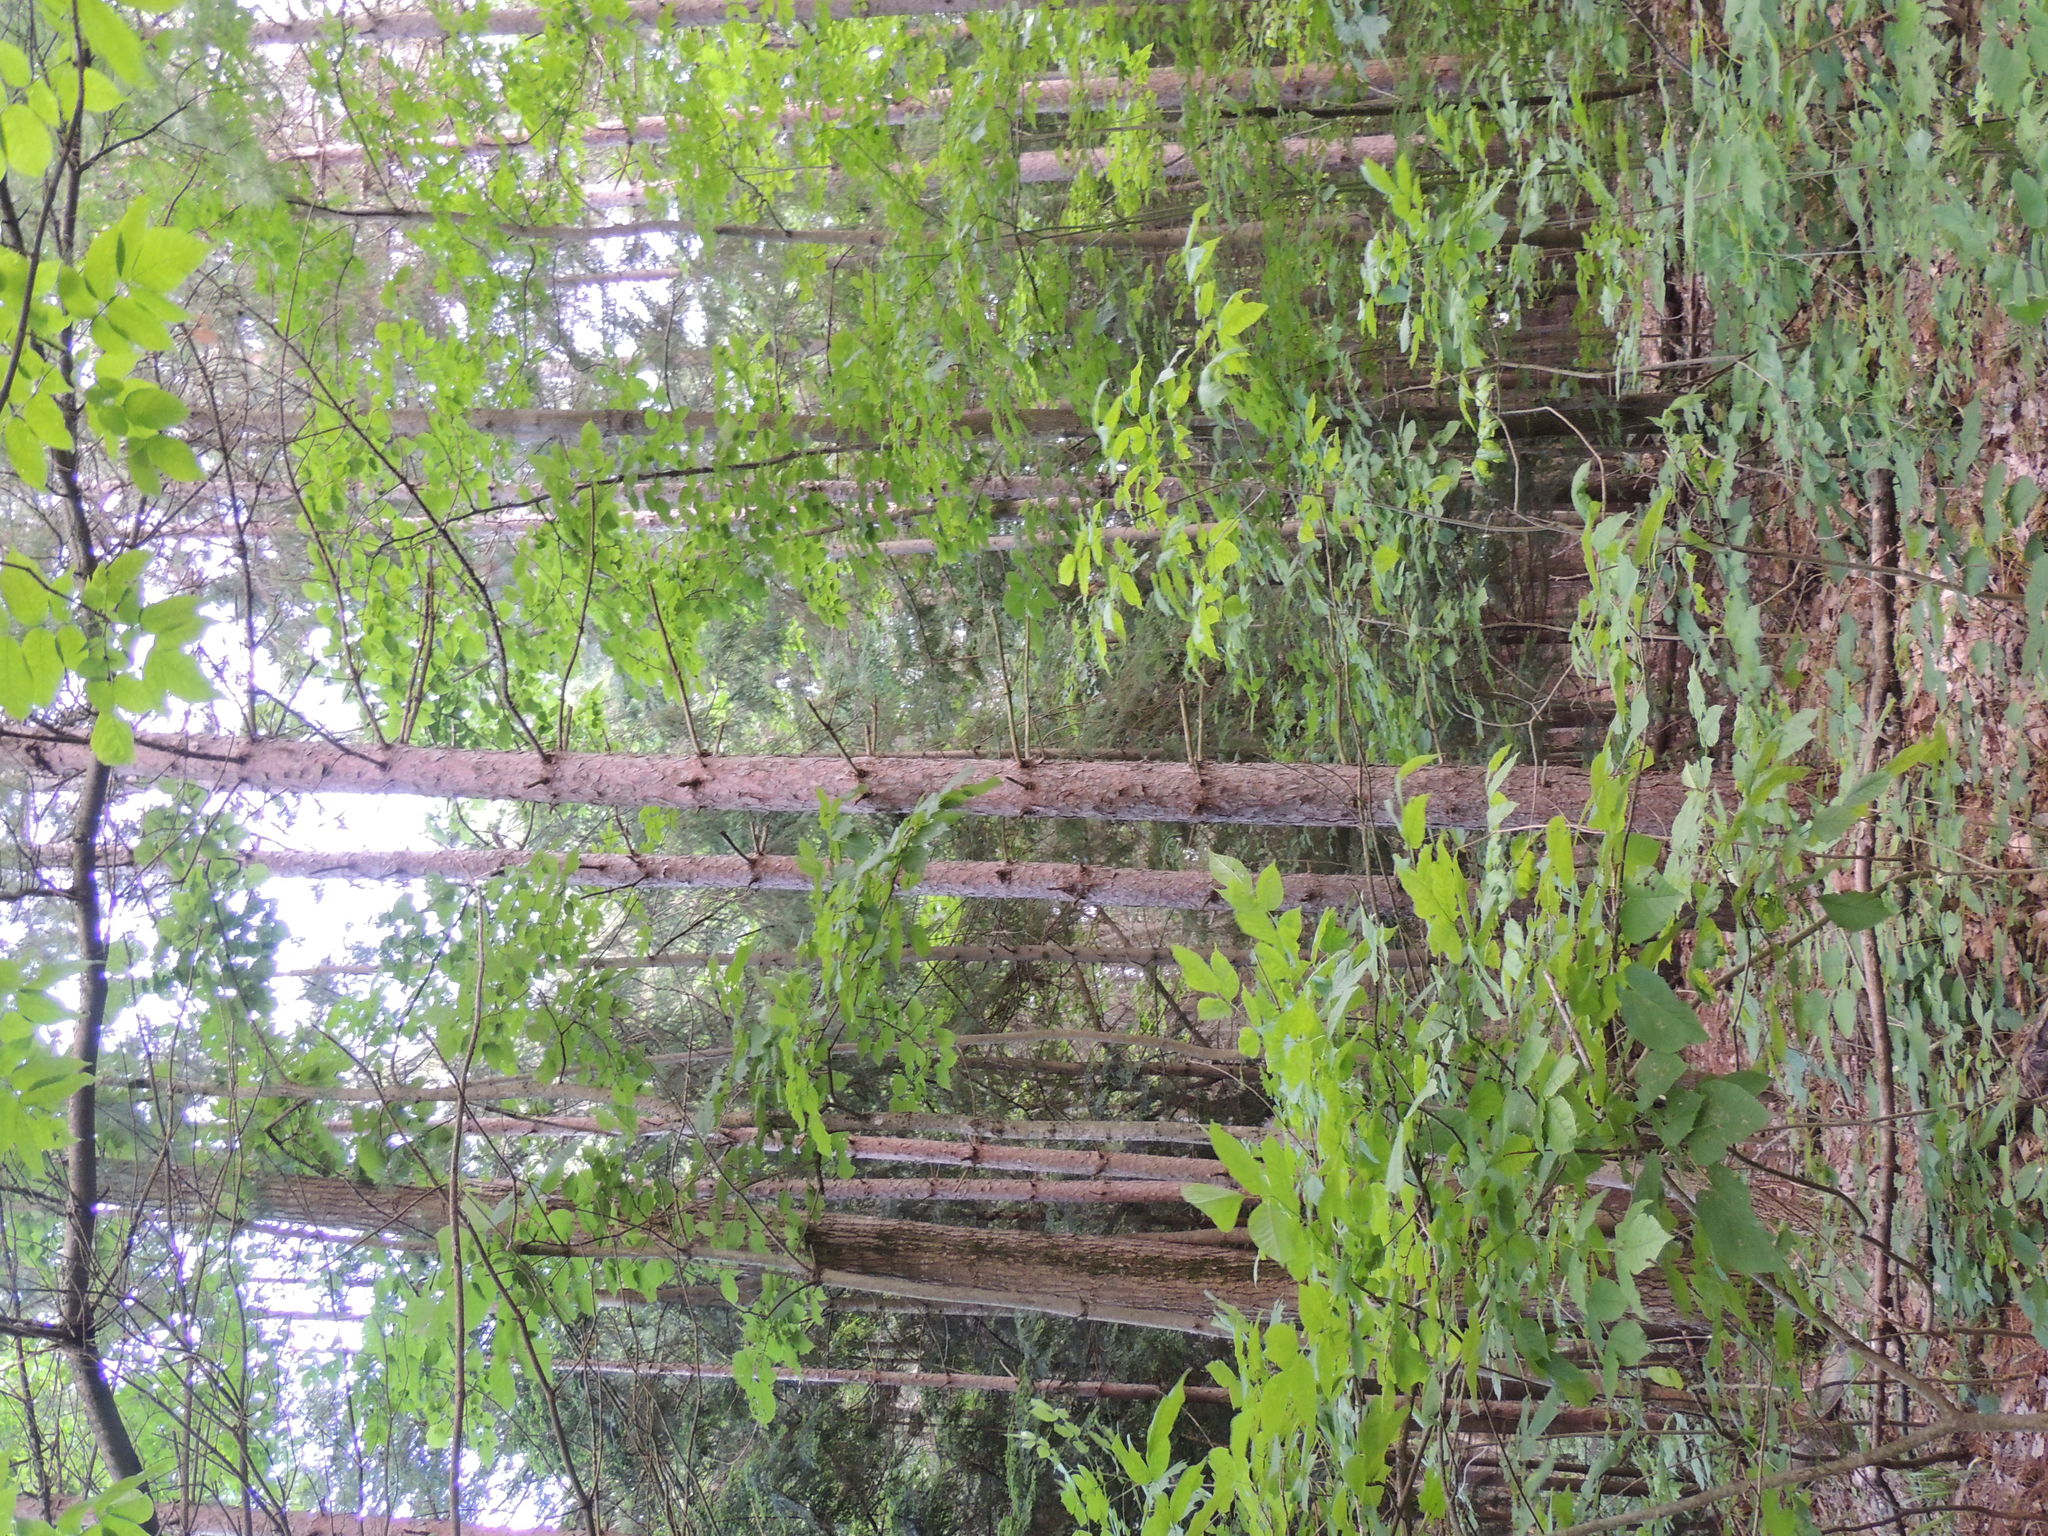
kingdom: Plantae
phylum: Tracheophyta
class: Pinopsida
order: Pinales
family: Pinaceae
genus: Pinus
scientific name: Pinus resinosa
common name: Norway pine
